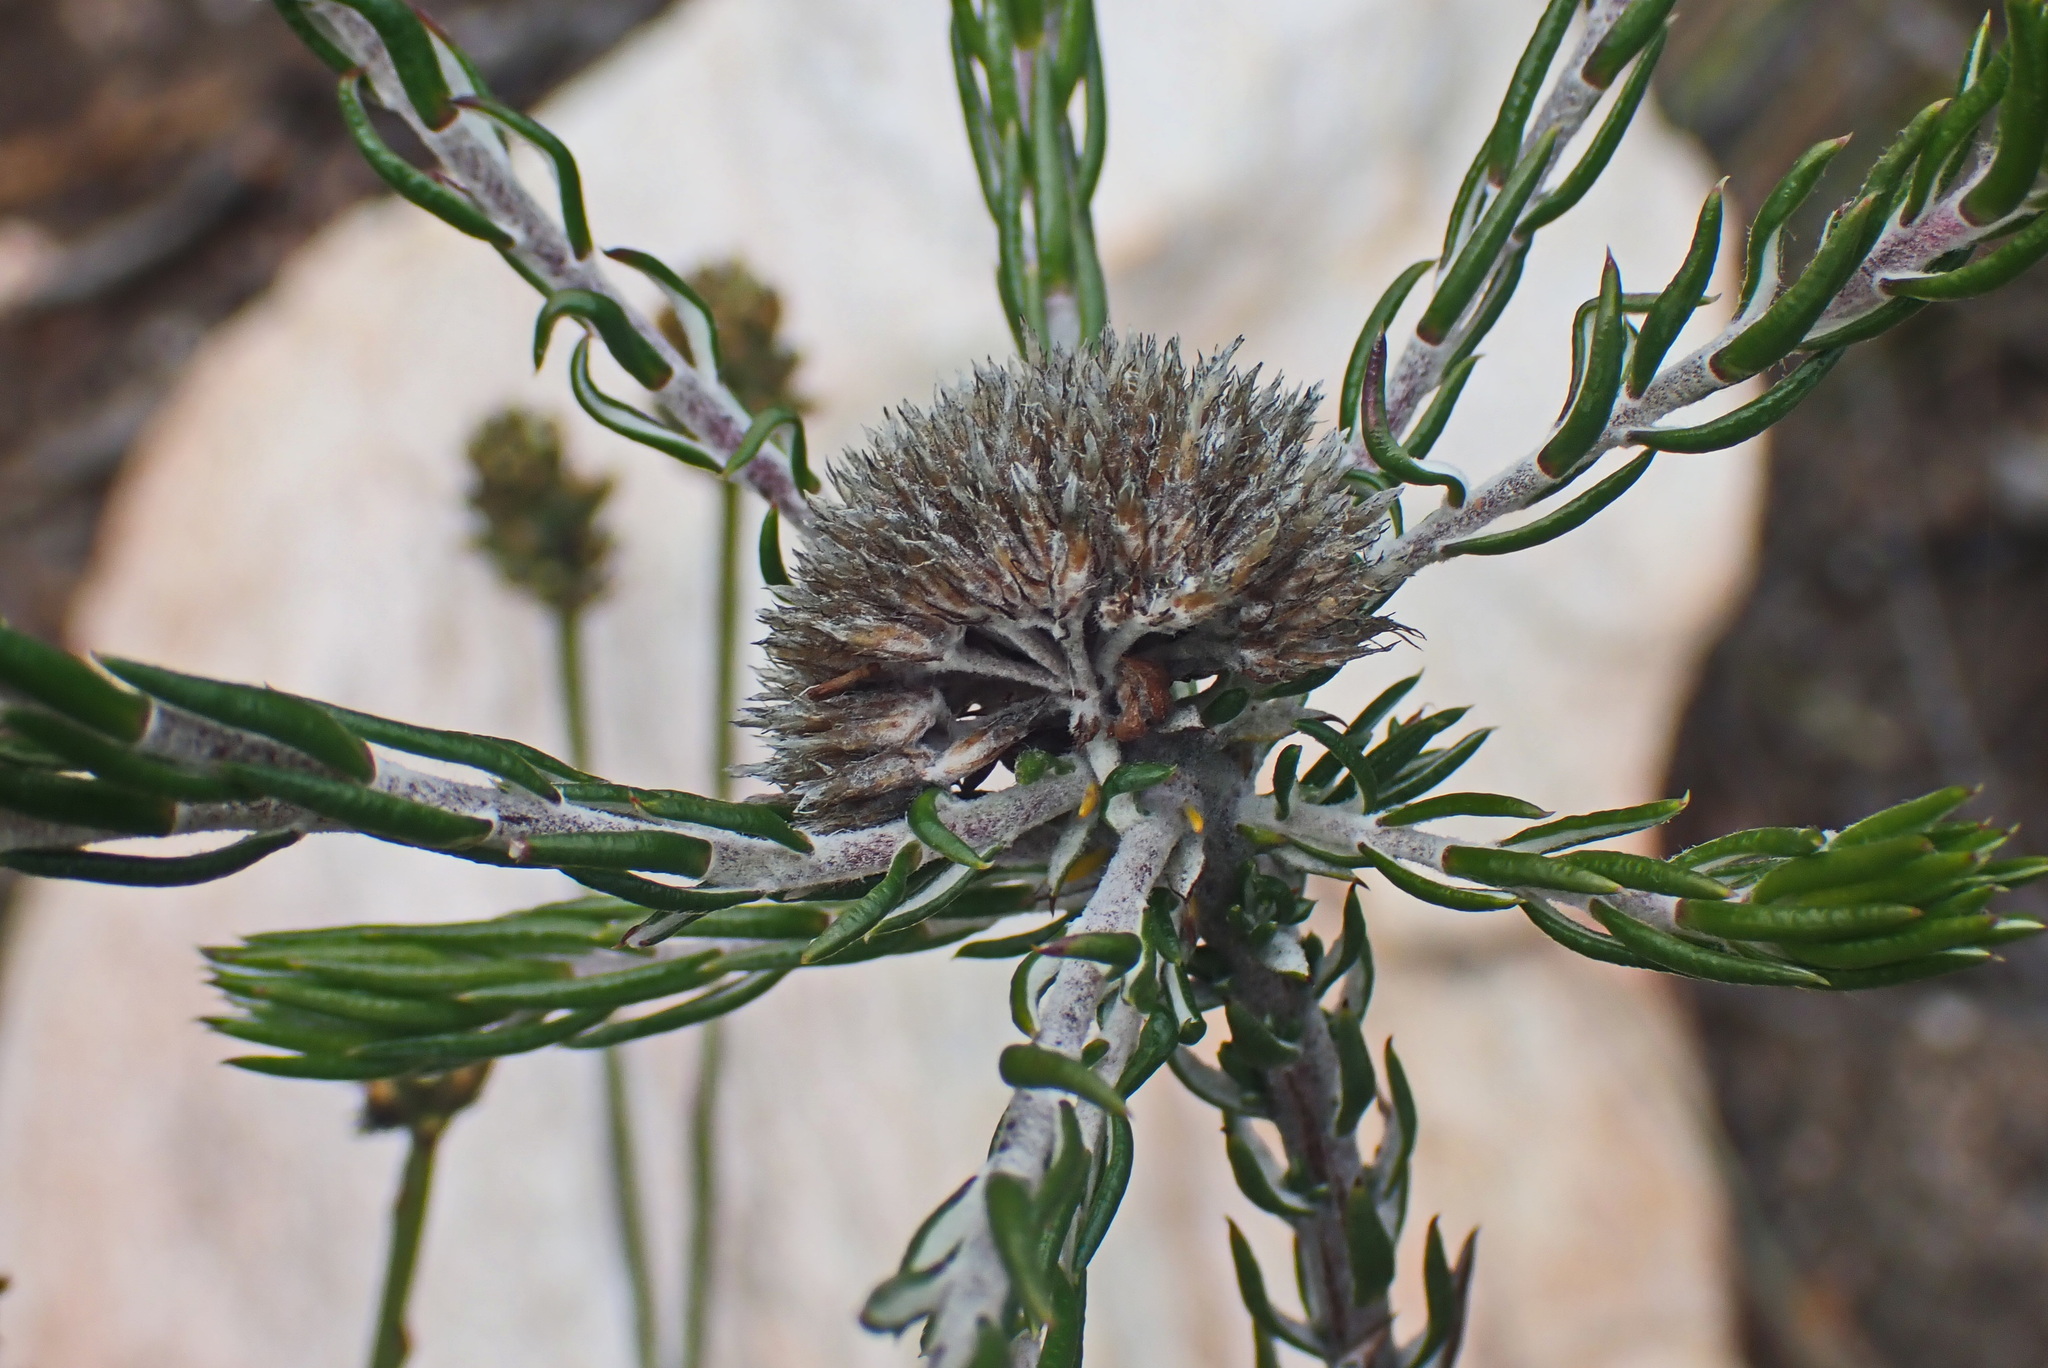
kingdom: Plantae
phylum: Tracheophyta
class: Magnoliopsida
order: Asterales
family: Asteraceae
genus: Metalasia
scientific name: Metalasia pungens
